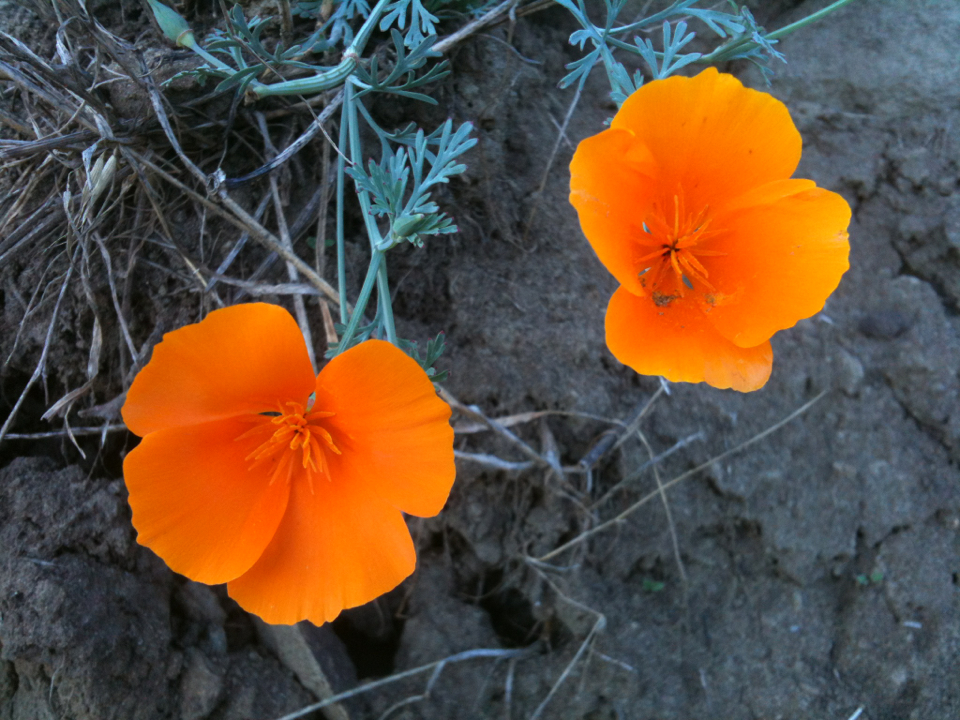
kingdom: Plantae
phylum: Tracheophyta
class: Magnoliopsida
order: Ranunculales
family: Papaveraceae
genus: Eschscholzia
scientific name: Eschscholzia californica
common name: California poppy
